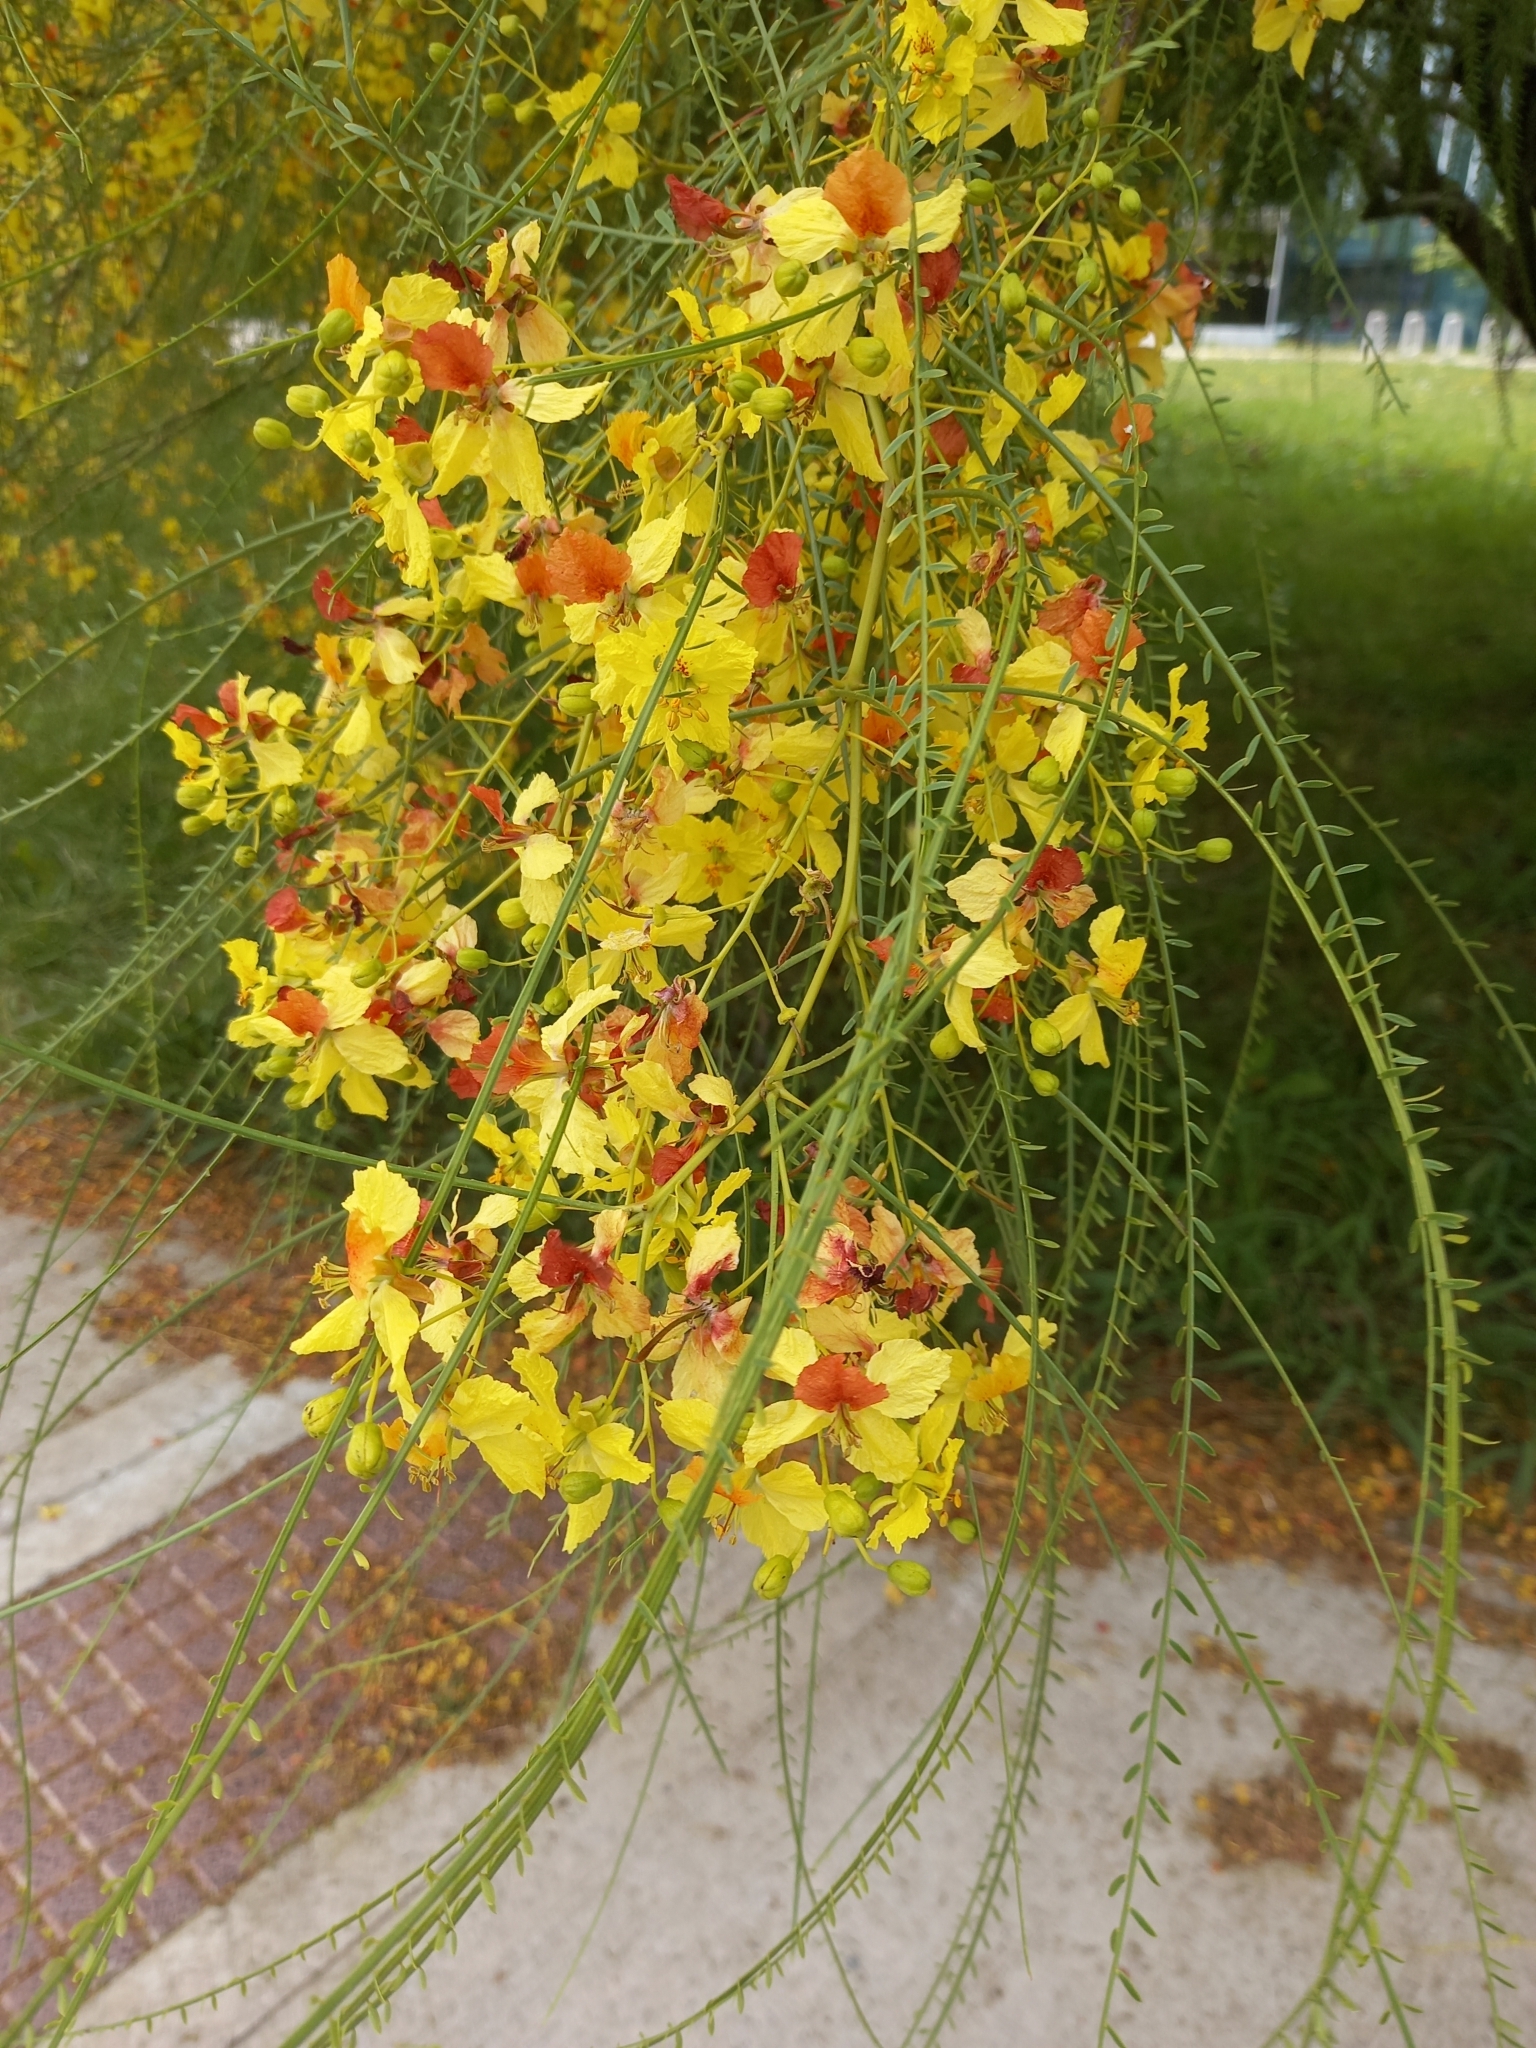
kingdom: Plantae
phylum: Tracheophyta
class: Magnoliopsida
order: Fabales
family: Fabaceae
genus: Parkinsonia
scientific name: Parkinsonia aculeata
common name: Jerusalem thorn
